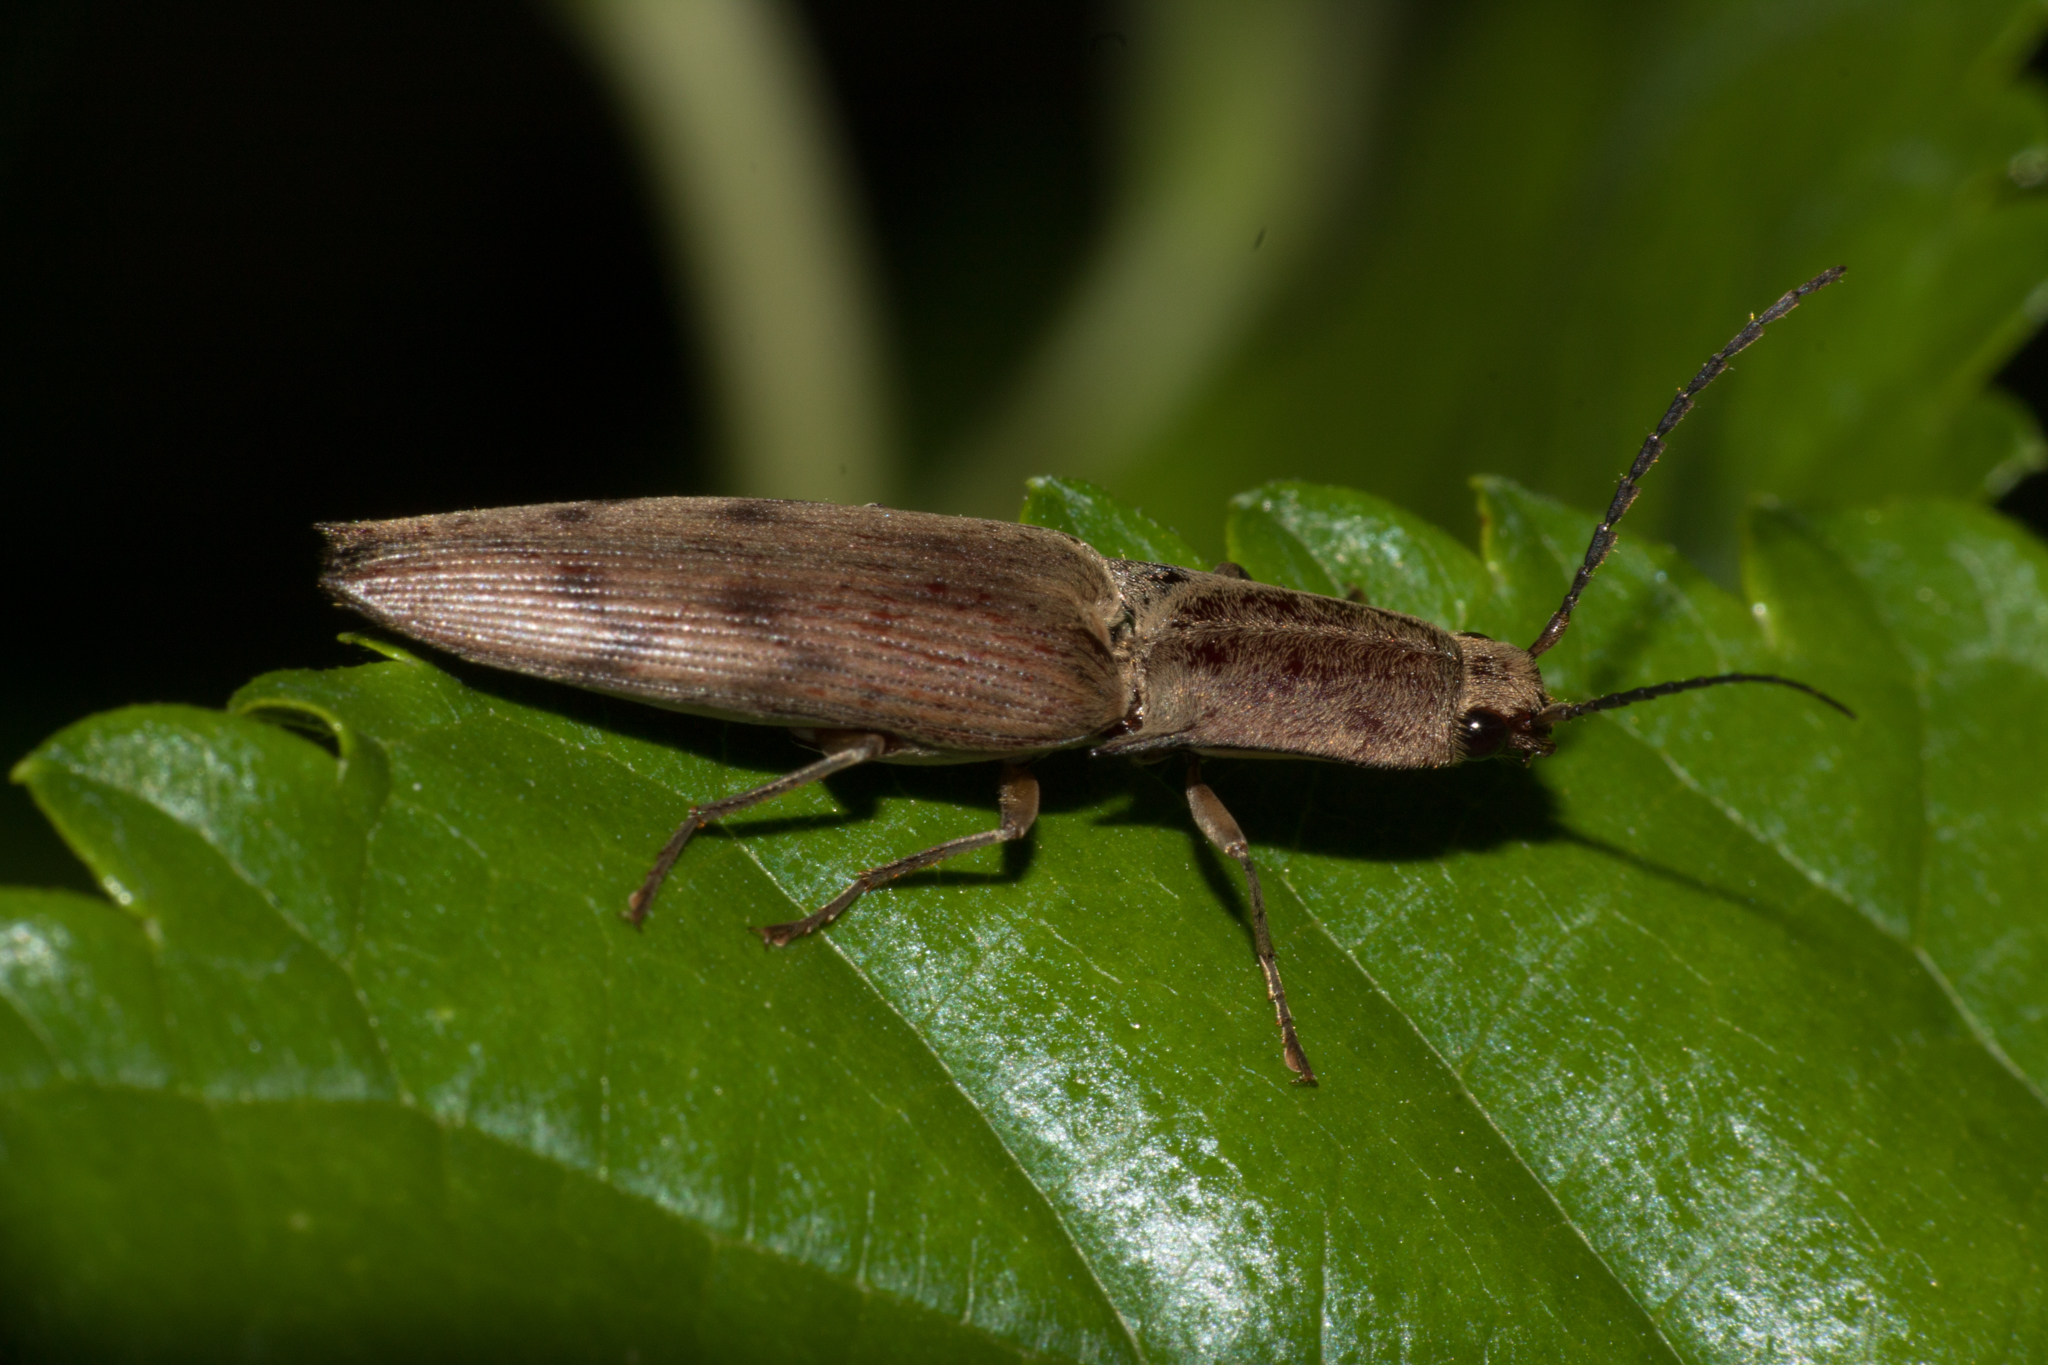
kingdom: Animalia
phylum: Arthropoda
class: Insecta
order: Coleoptera
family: Elateridae
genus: Monocrepidius
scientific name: Monocrepidius
